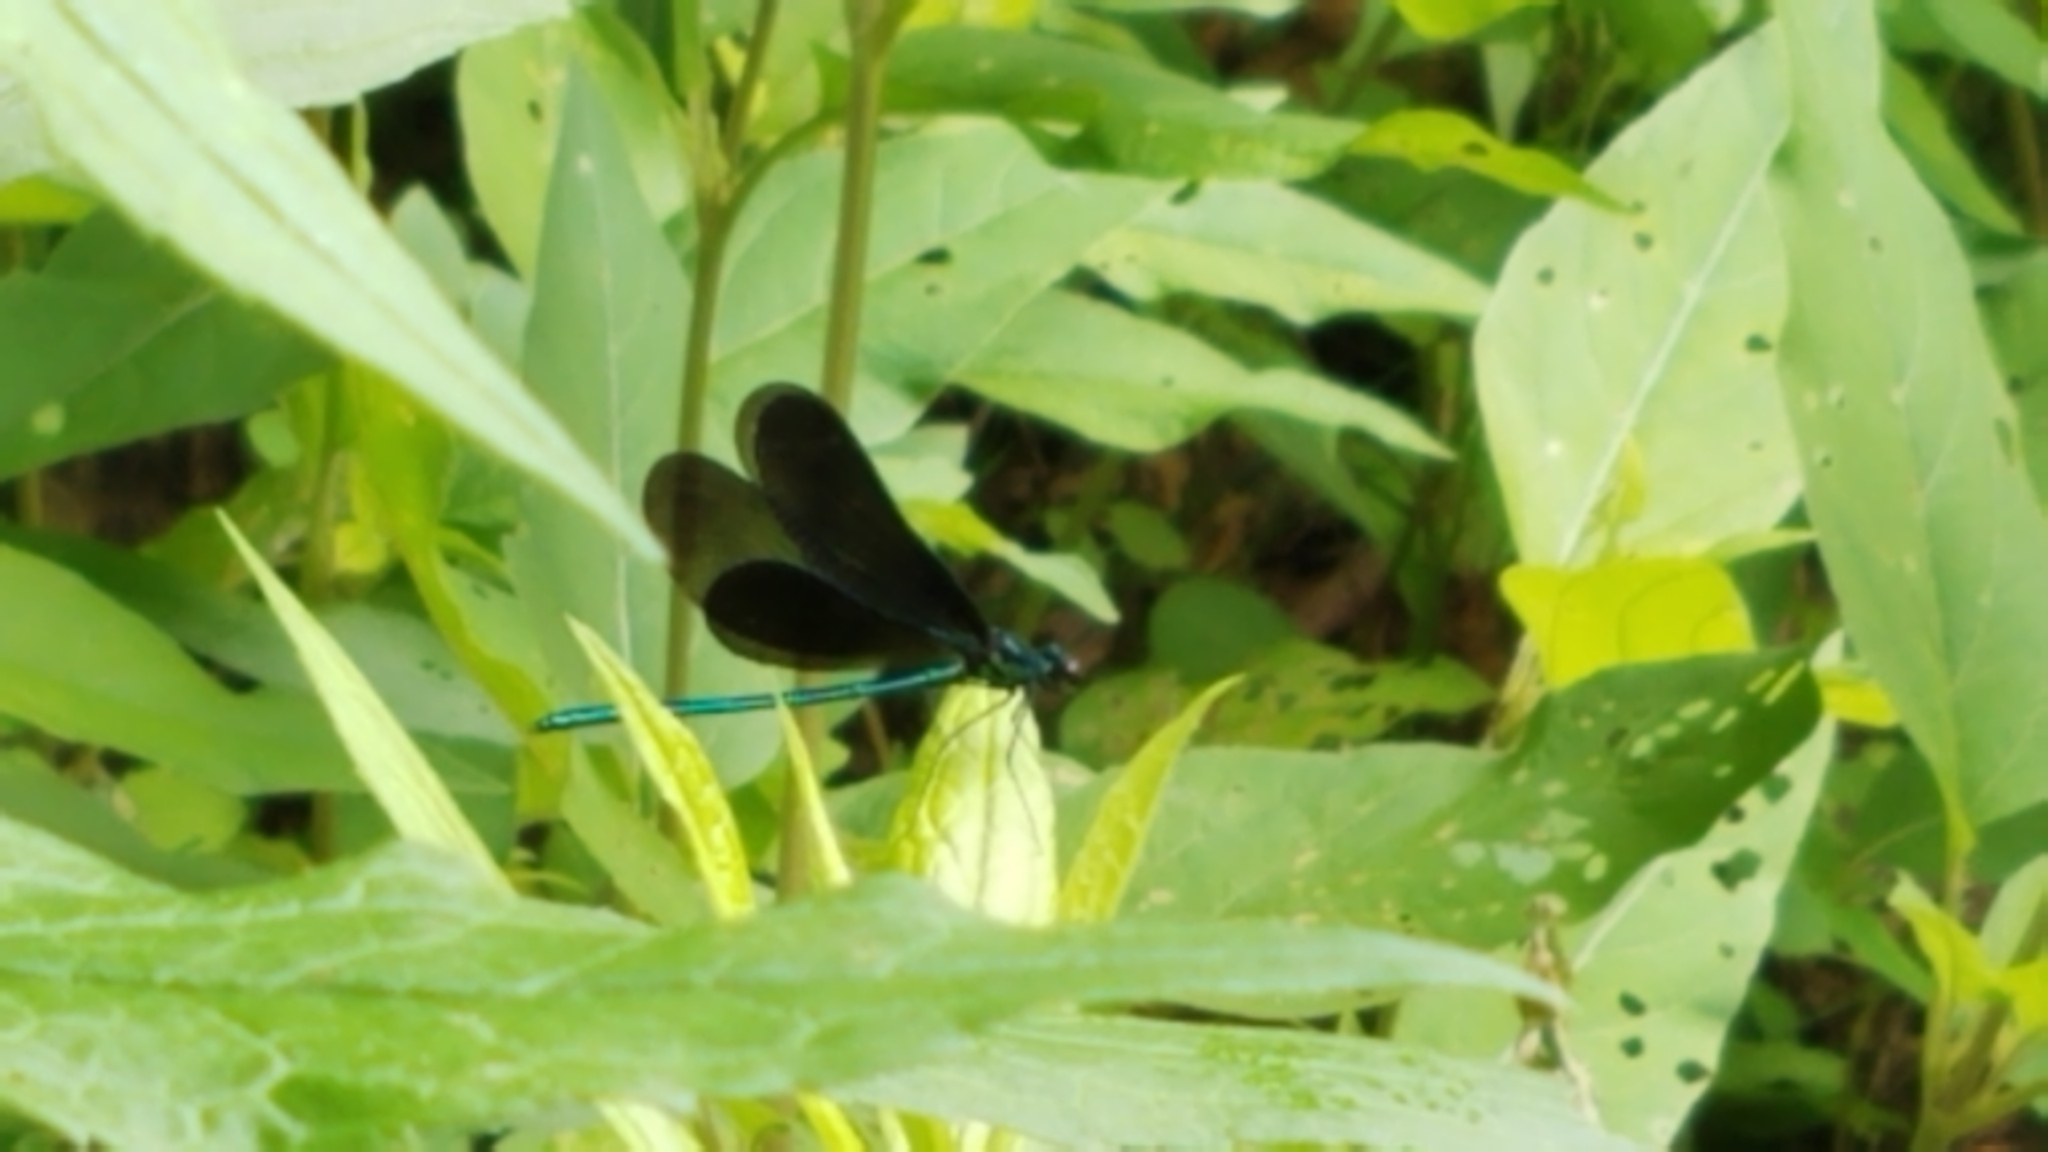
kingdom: Animalia
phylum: Arthropoda
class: Insecta
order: Odonata
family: Calopterygidae
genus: Calopteryx
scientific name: Calopteryx maculata
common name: Ebony jewelwing
